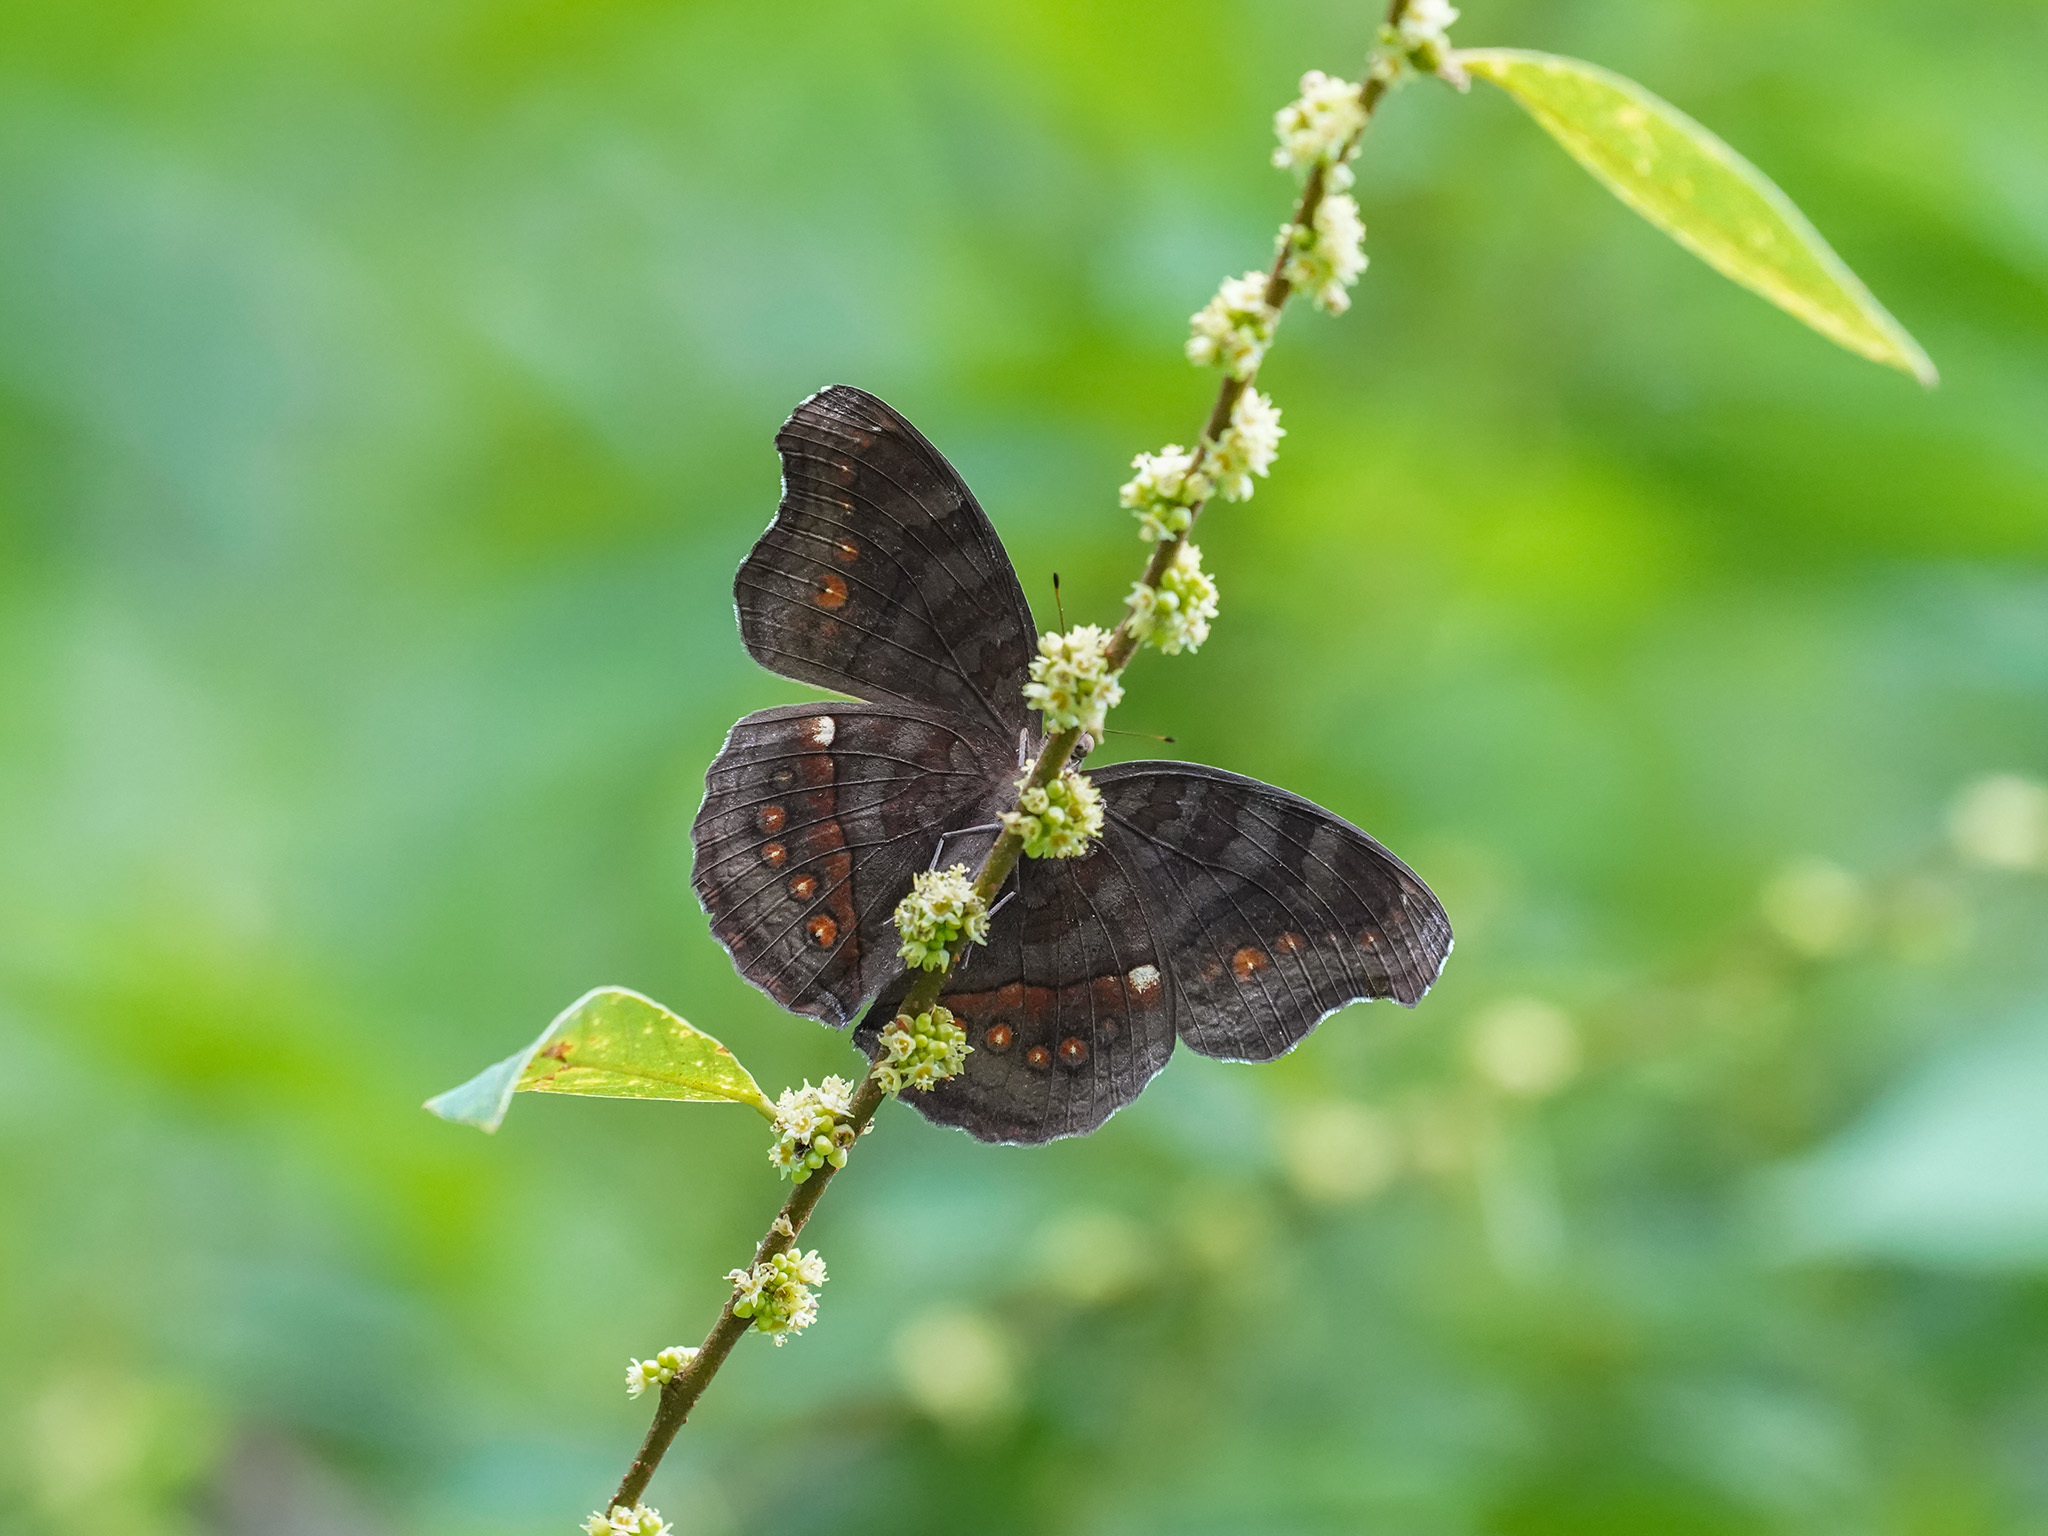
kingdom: Animalia
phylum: Arthropoda
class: Insecta
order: Lepidoptera
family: Nymphalidae
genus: Junonia
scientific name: Junonia hedonia
